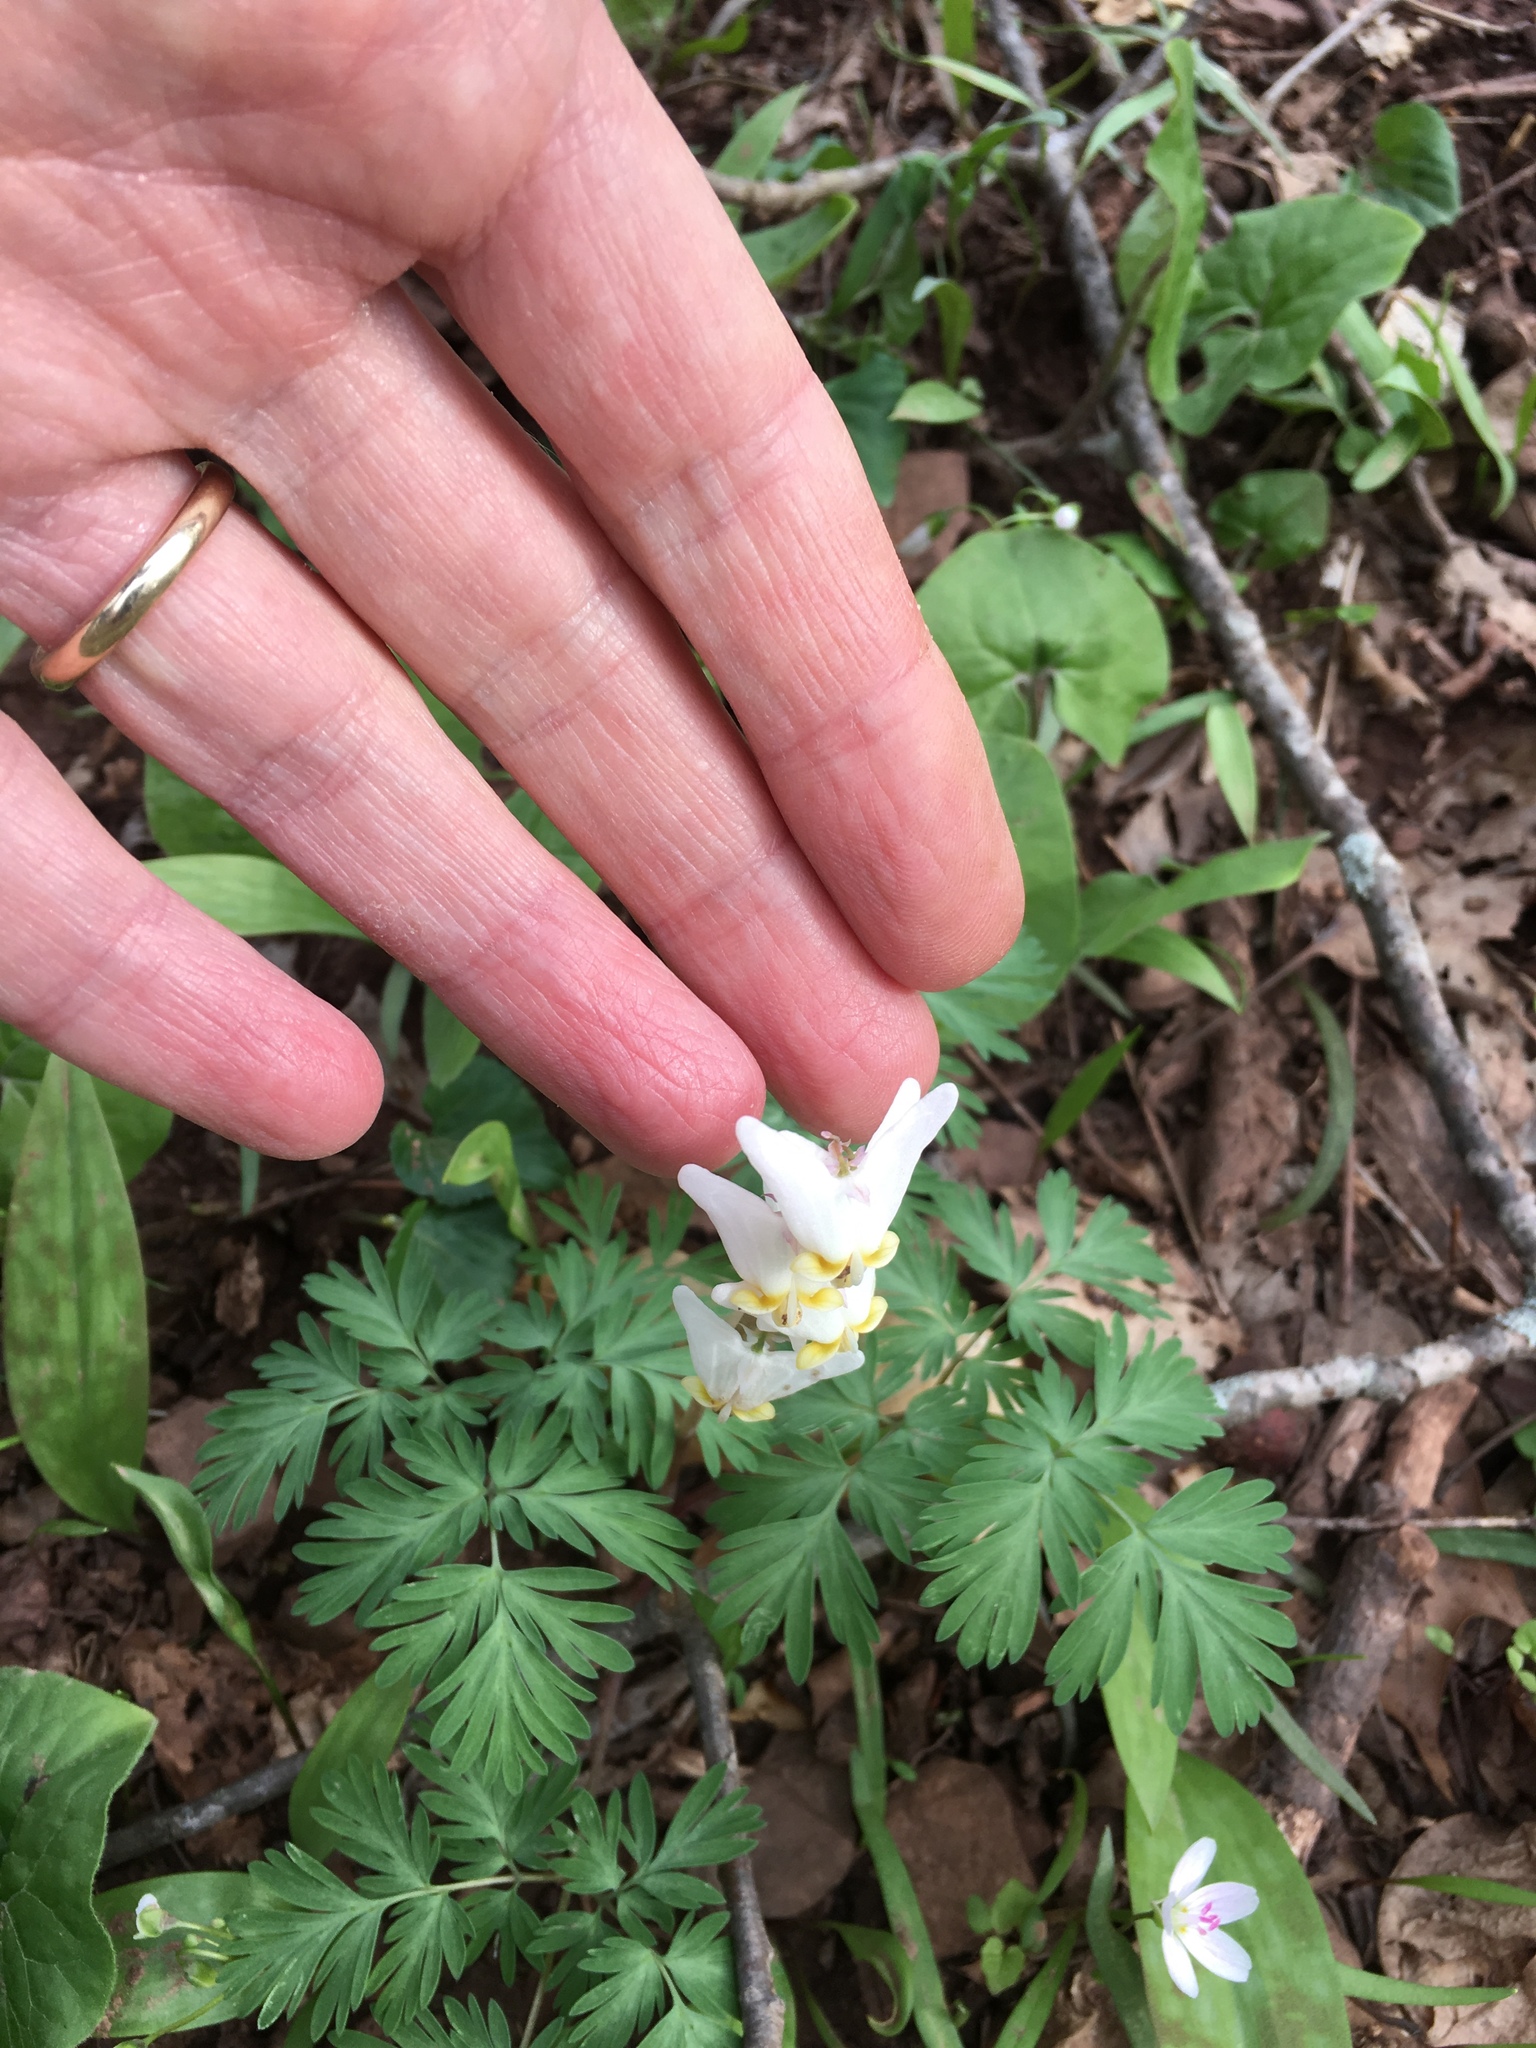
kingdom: Plantae
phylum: Tracheophyta
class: Magnoliopsida
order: Ranunculales
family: Papaveraceae
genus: Dicentra
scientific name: Dicentra cucullaria
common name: Dutchman's breeches
